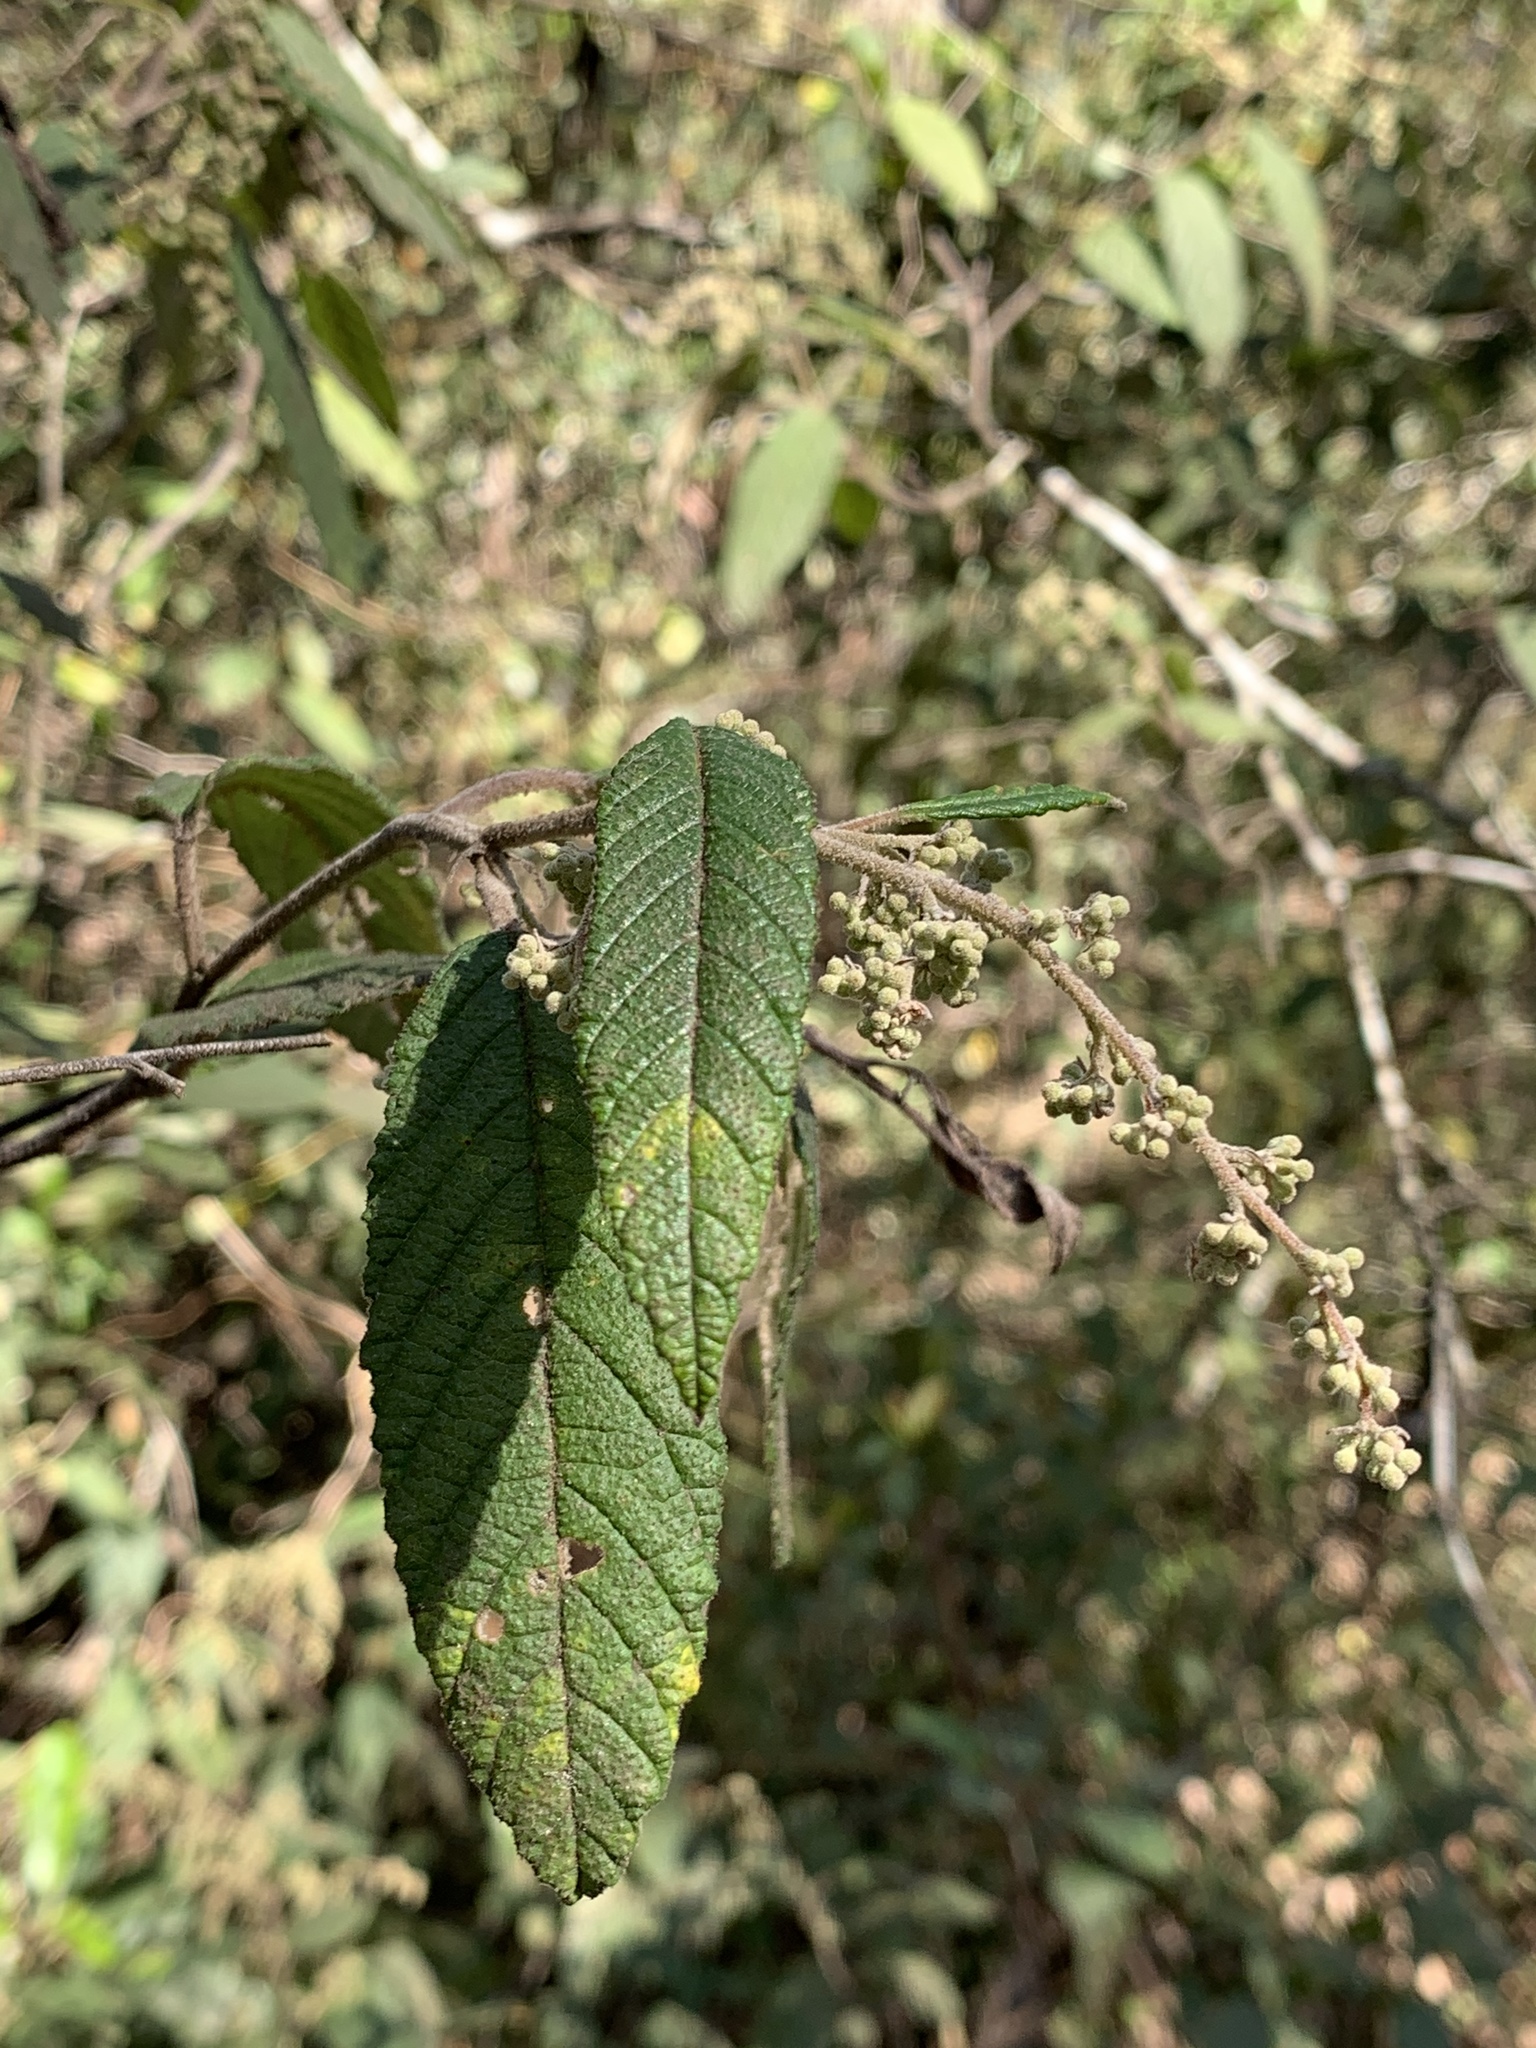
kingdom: Plantae
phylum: Tracheophyta
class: Magnoliopsida
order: Rosales
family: Rhamnaceae
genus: Pomaderris
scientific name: Pomaderris aspera
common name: Hazel pomaderris
